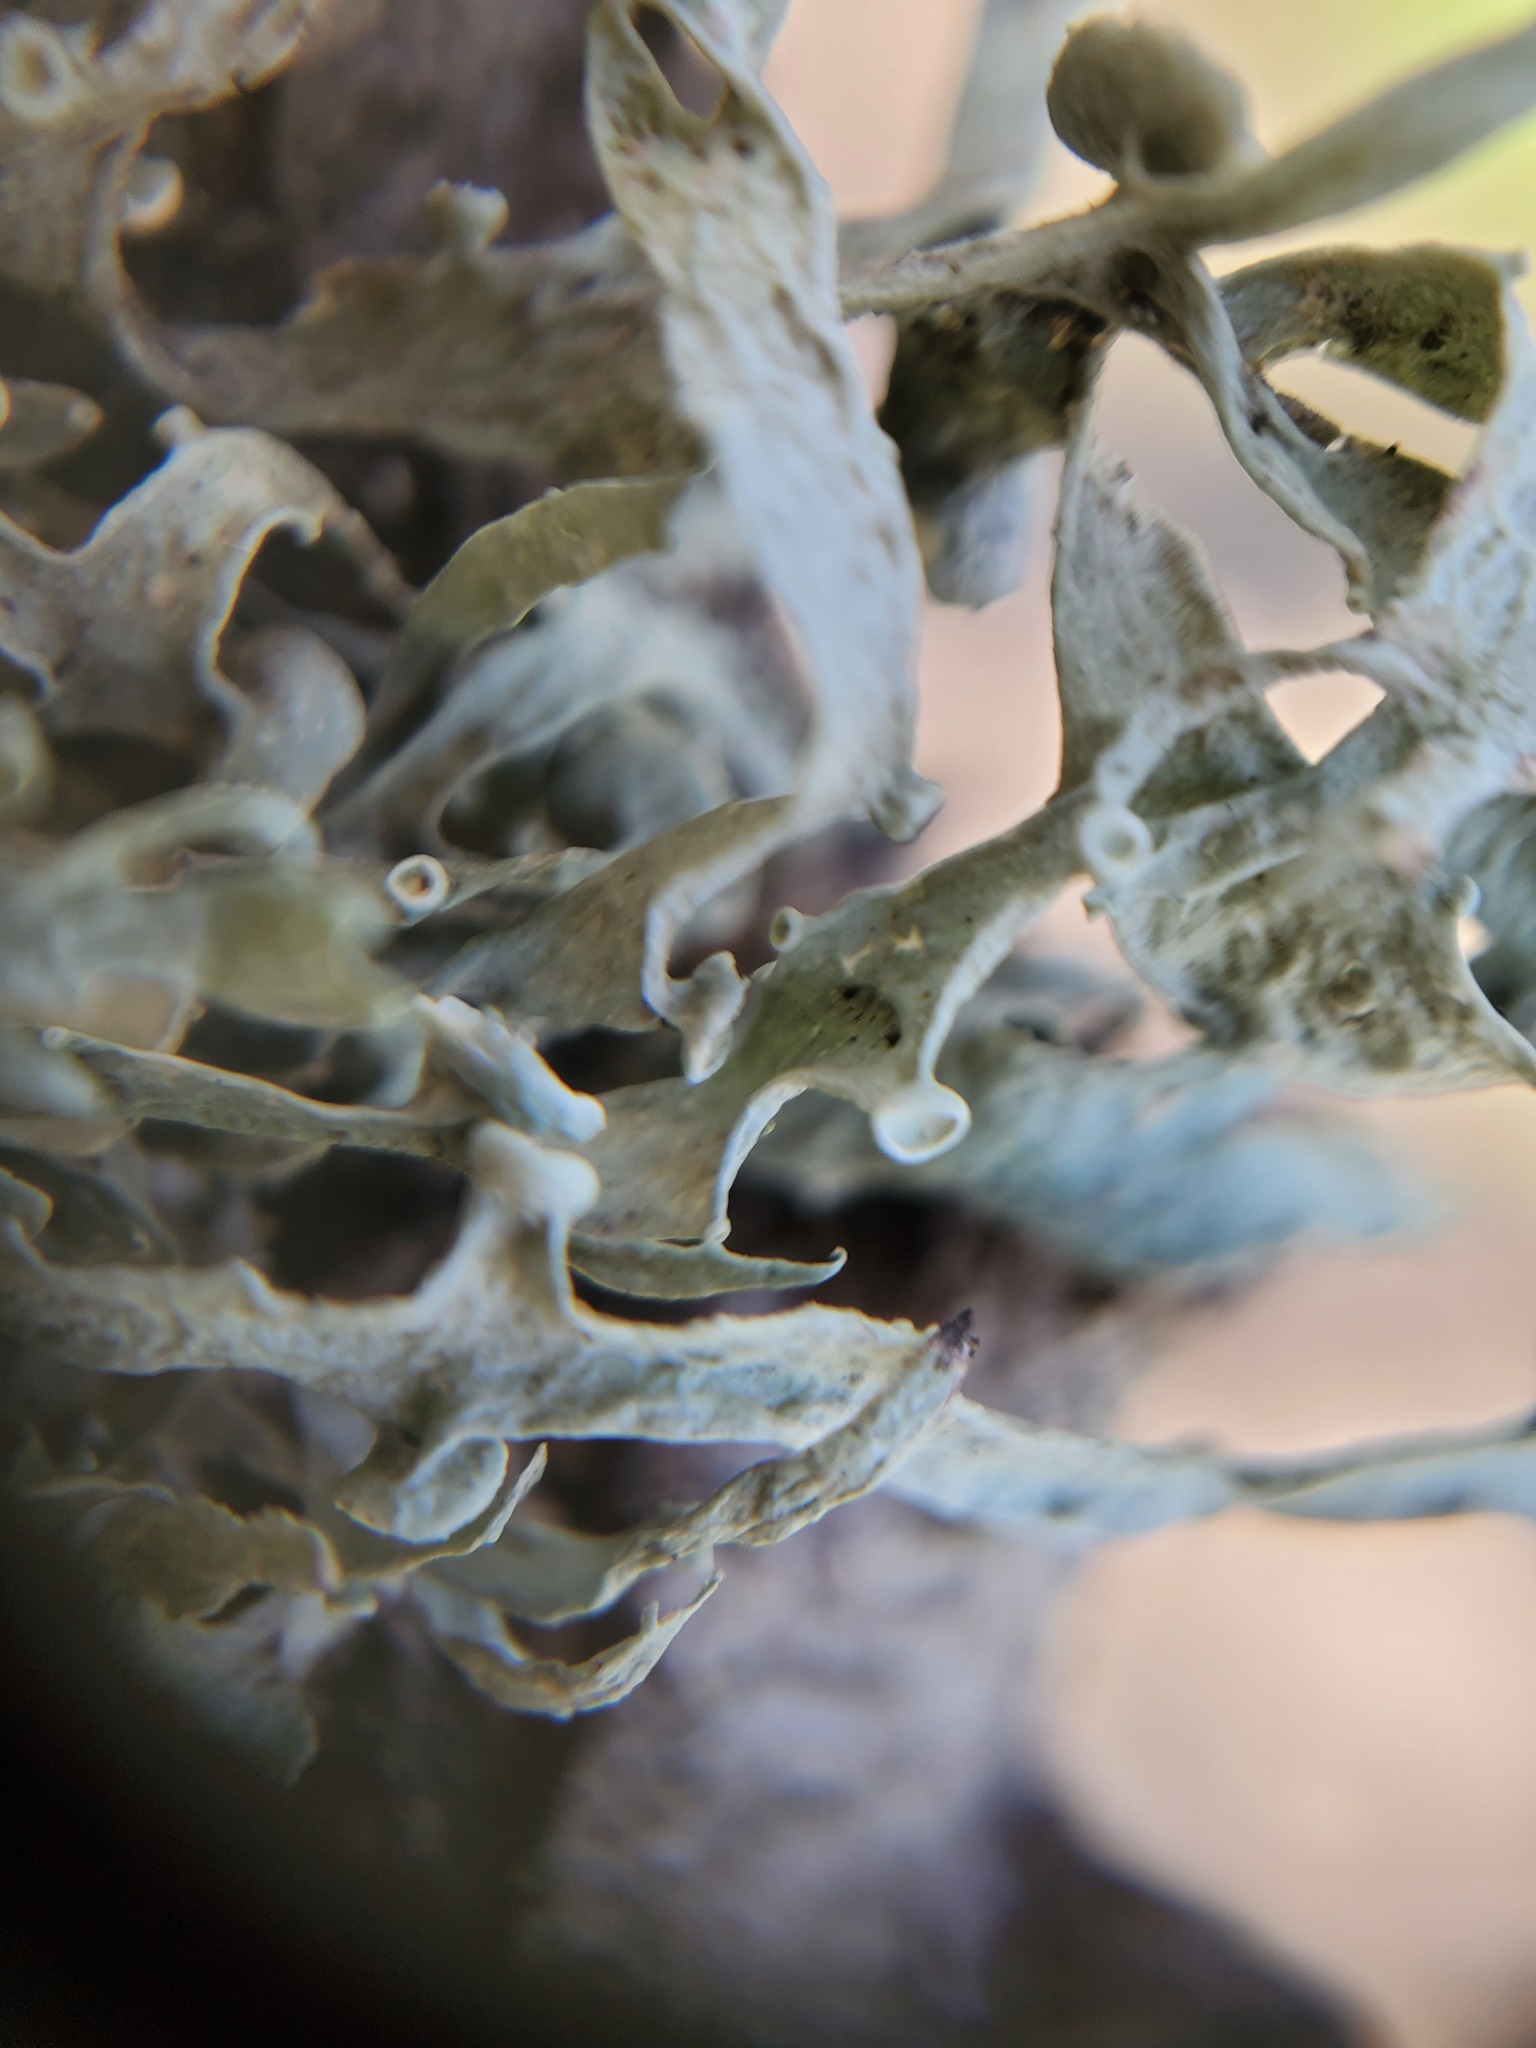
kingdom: Fungi
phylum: Ascomycota
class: Lecanoromycetes
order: Lecanorales
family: Ramalinaceae
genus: Ramalina
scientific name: Ramalina leptocarpha
